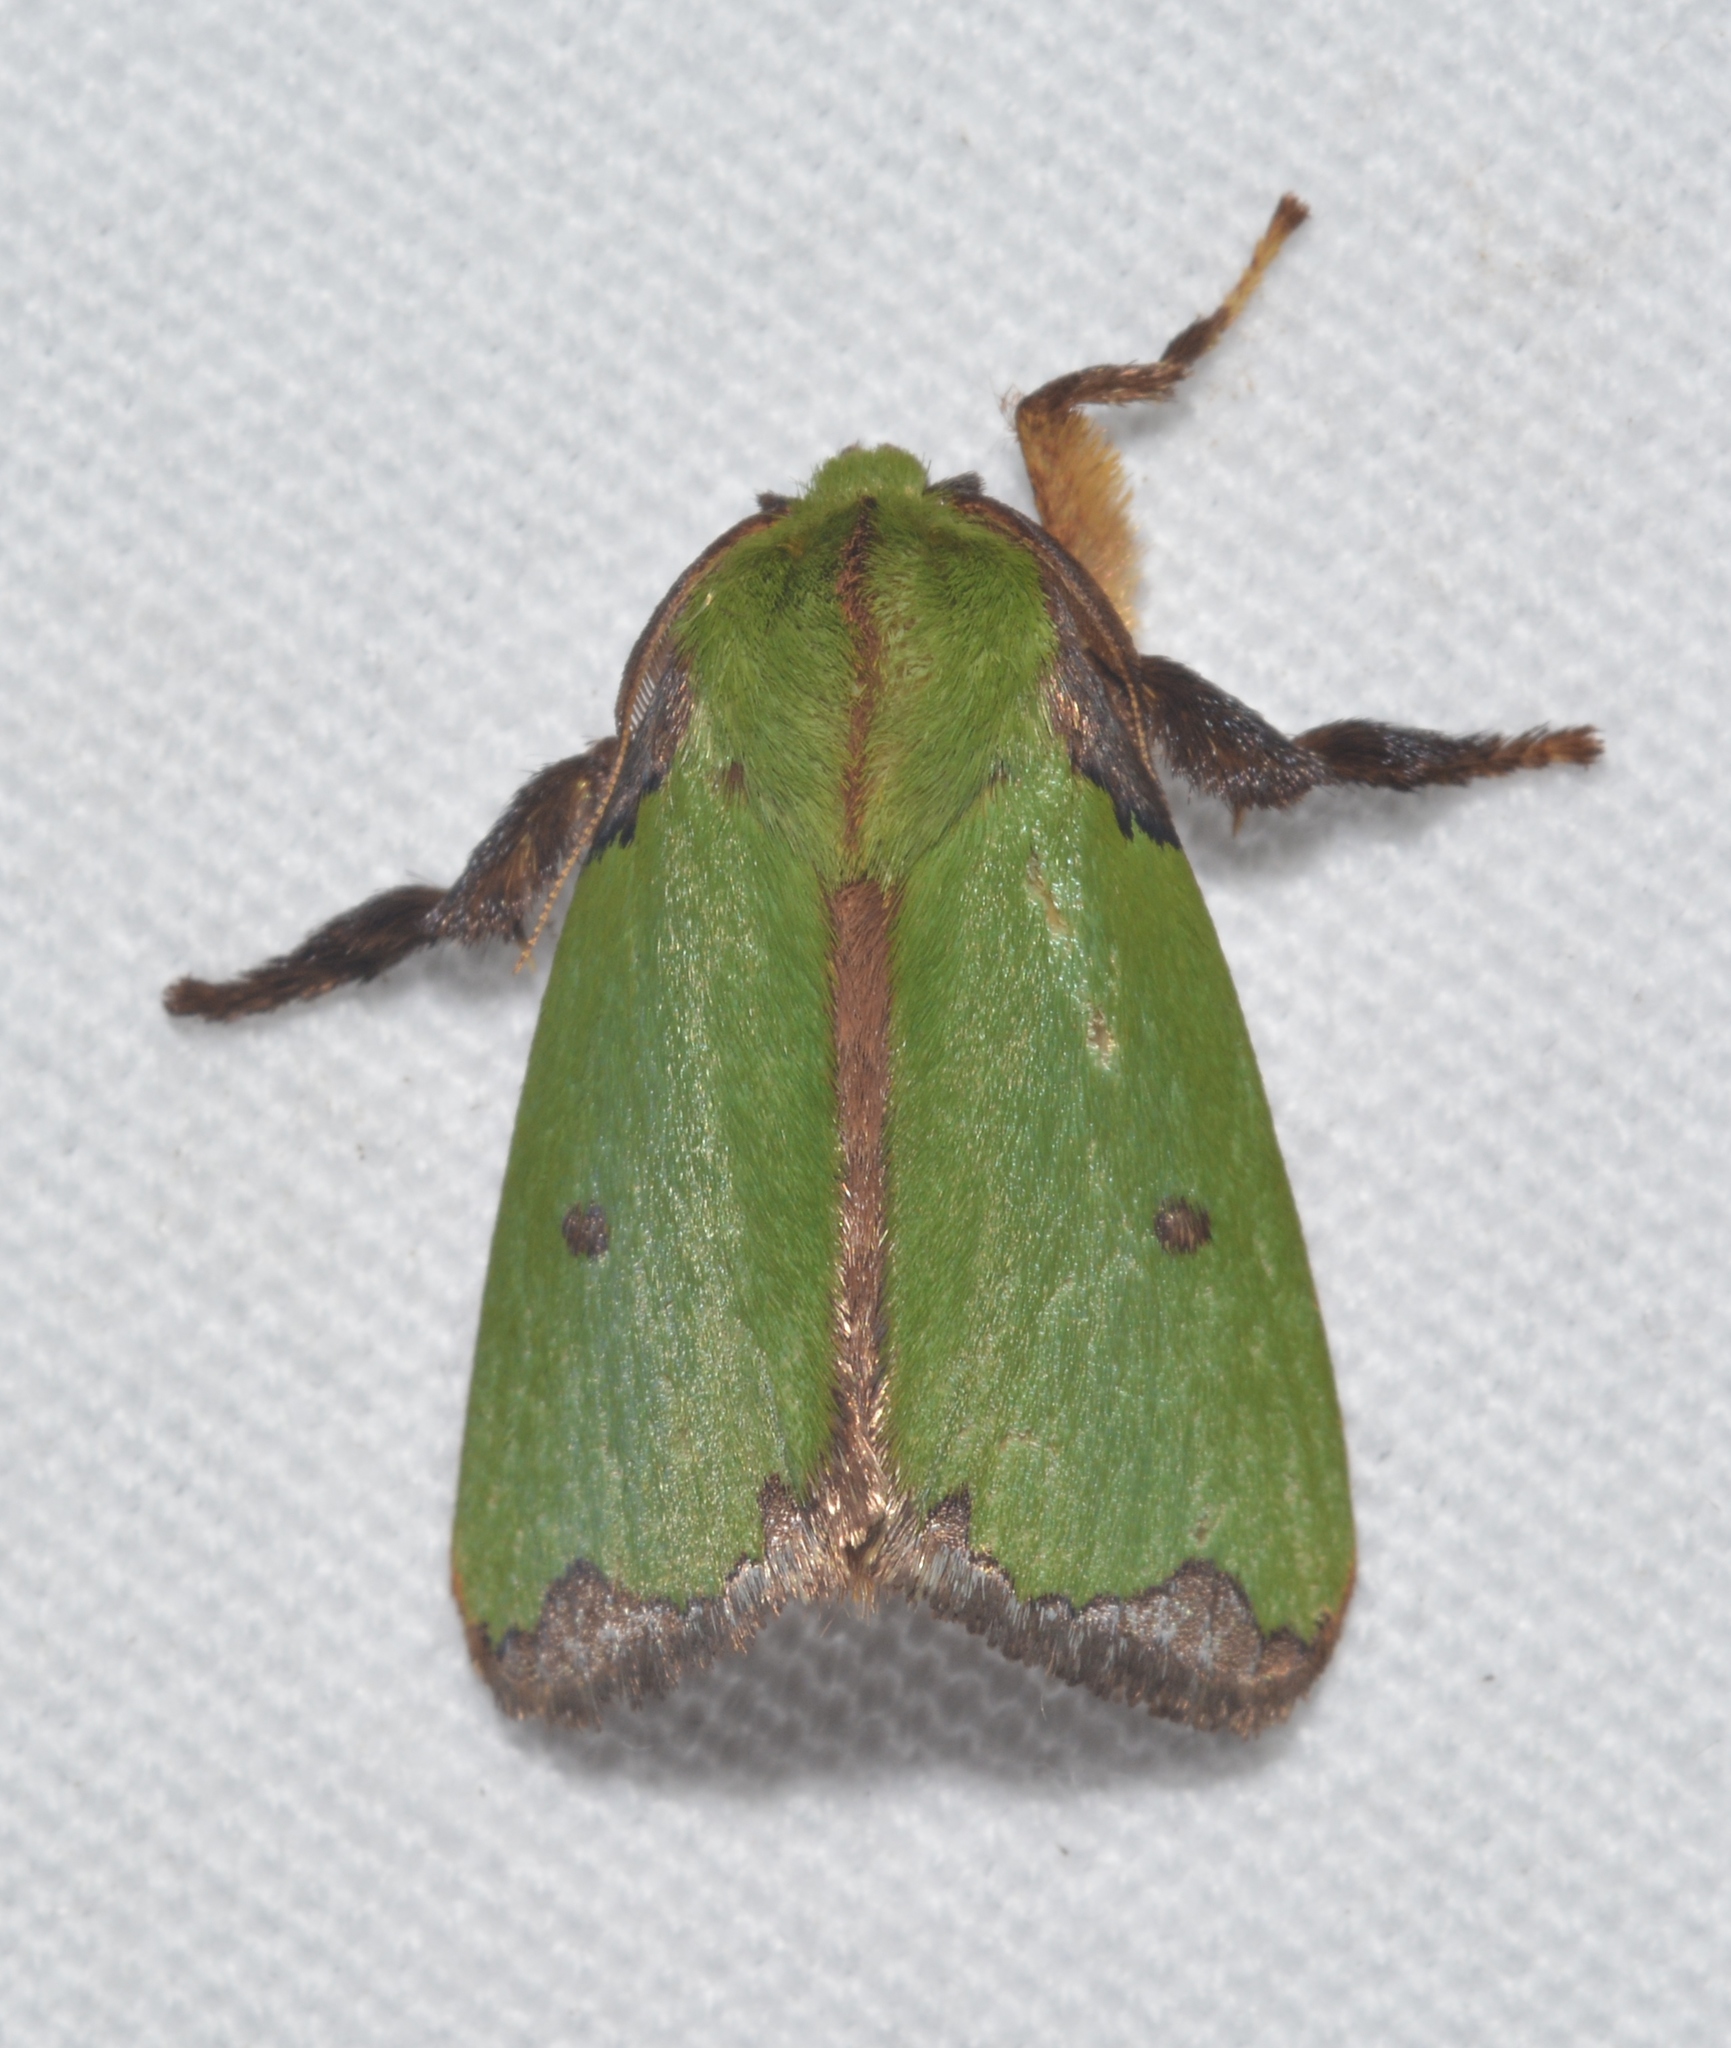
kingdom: Animalia
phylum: Arthropoda
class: Insecta
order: Lepidoptera
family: Limacodidae
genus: Parasa
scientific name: Parasa wellesca
